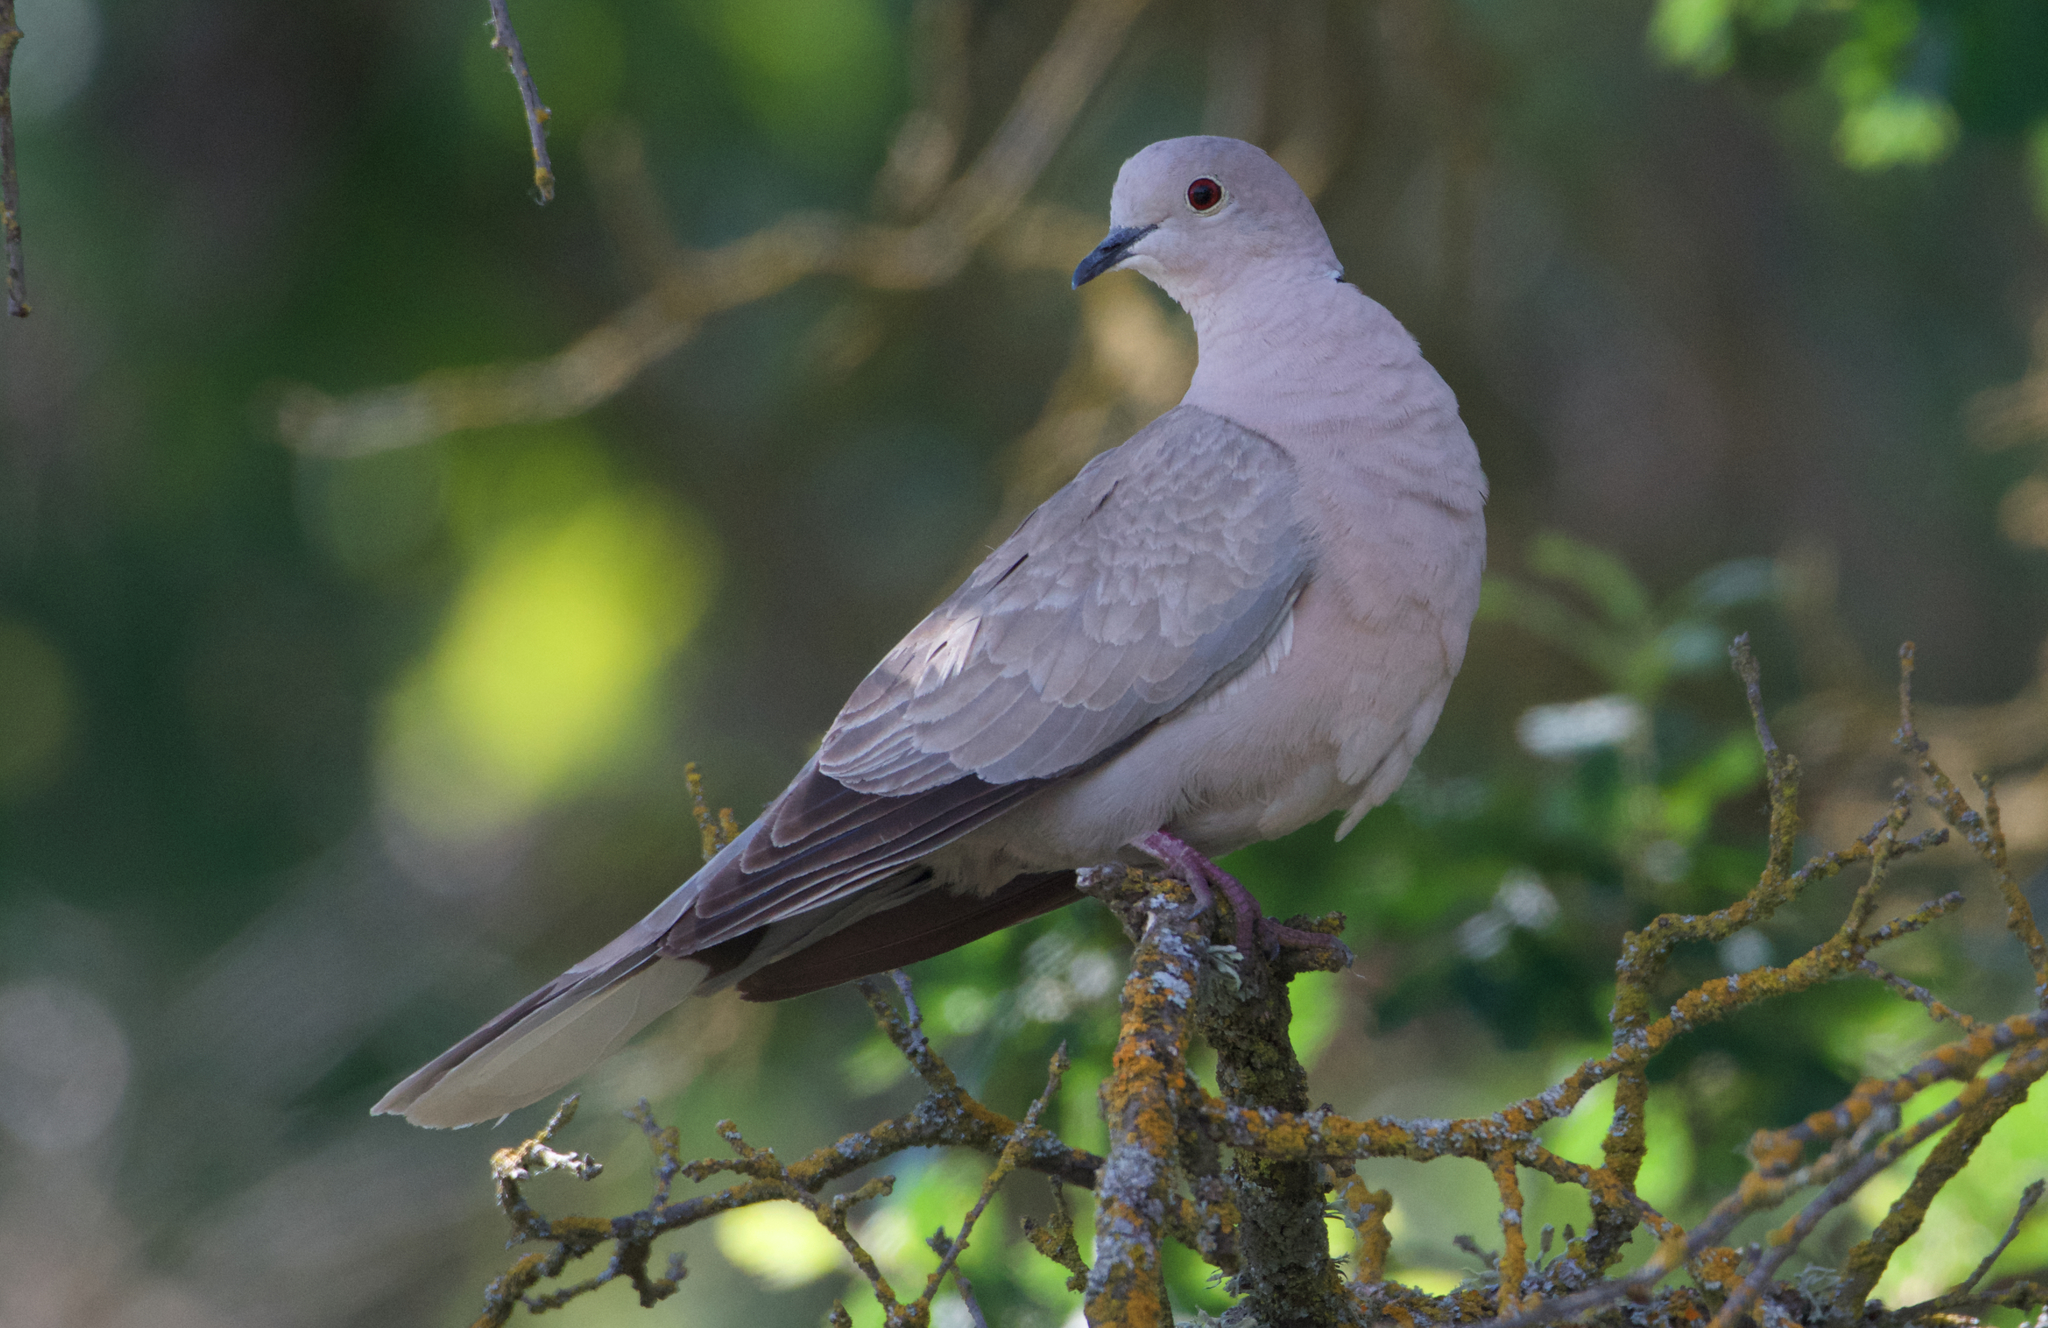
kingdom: Animalia
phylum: Chordata
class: Aves
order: Columbiformes
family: Columbidae
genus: Streptopelia
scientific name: Streptopelia decaocto
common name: Eurasian collared dove
